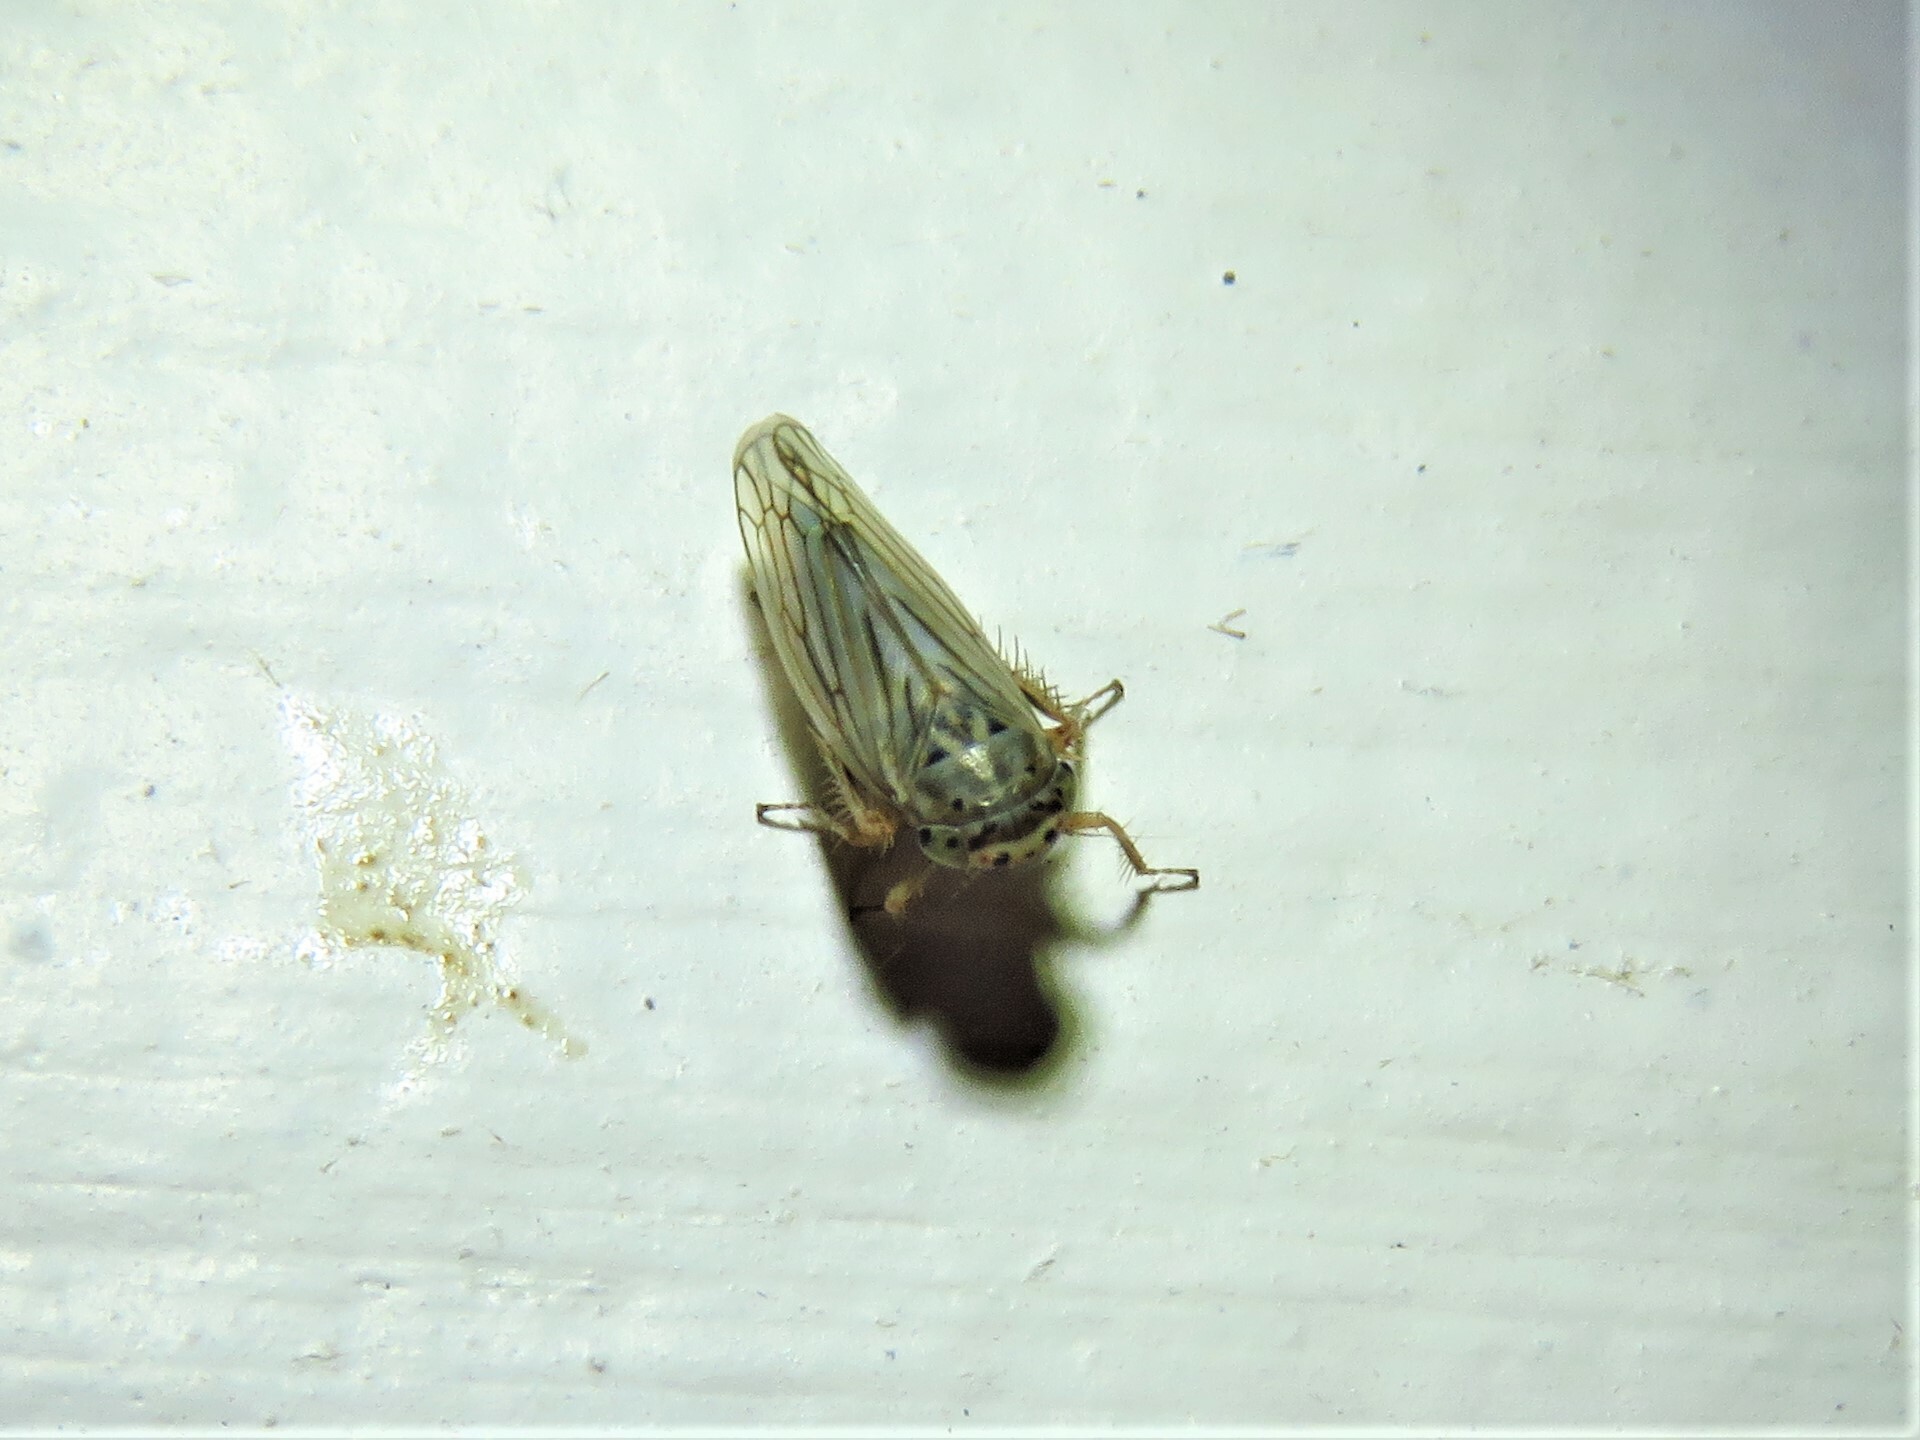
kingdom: Animalia
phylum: Arthropoda
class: Insecta
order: Hemiptera
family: Cicadellidae
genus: Exitianus
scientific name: Exitianus exitiosus
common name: Gray lawn leafhopper
